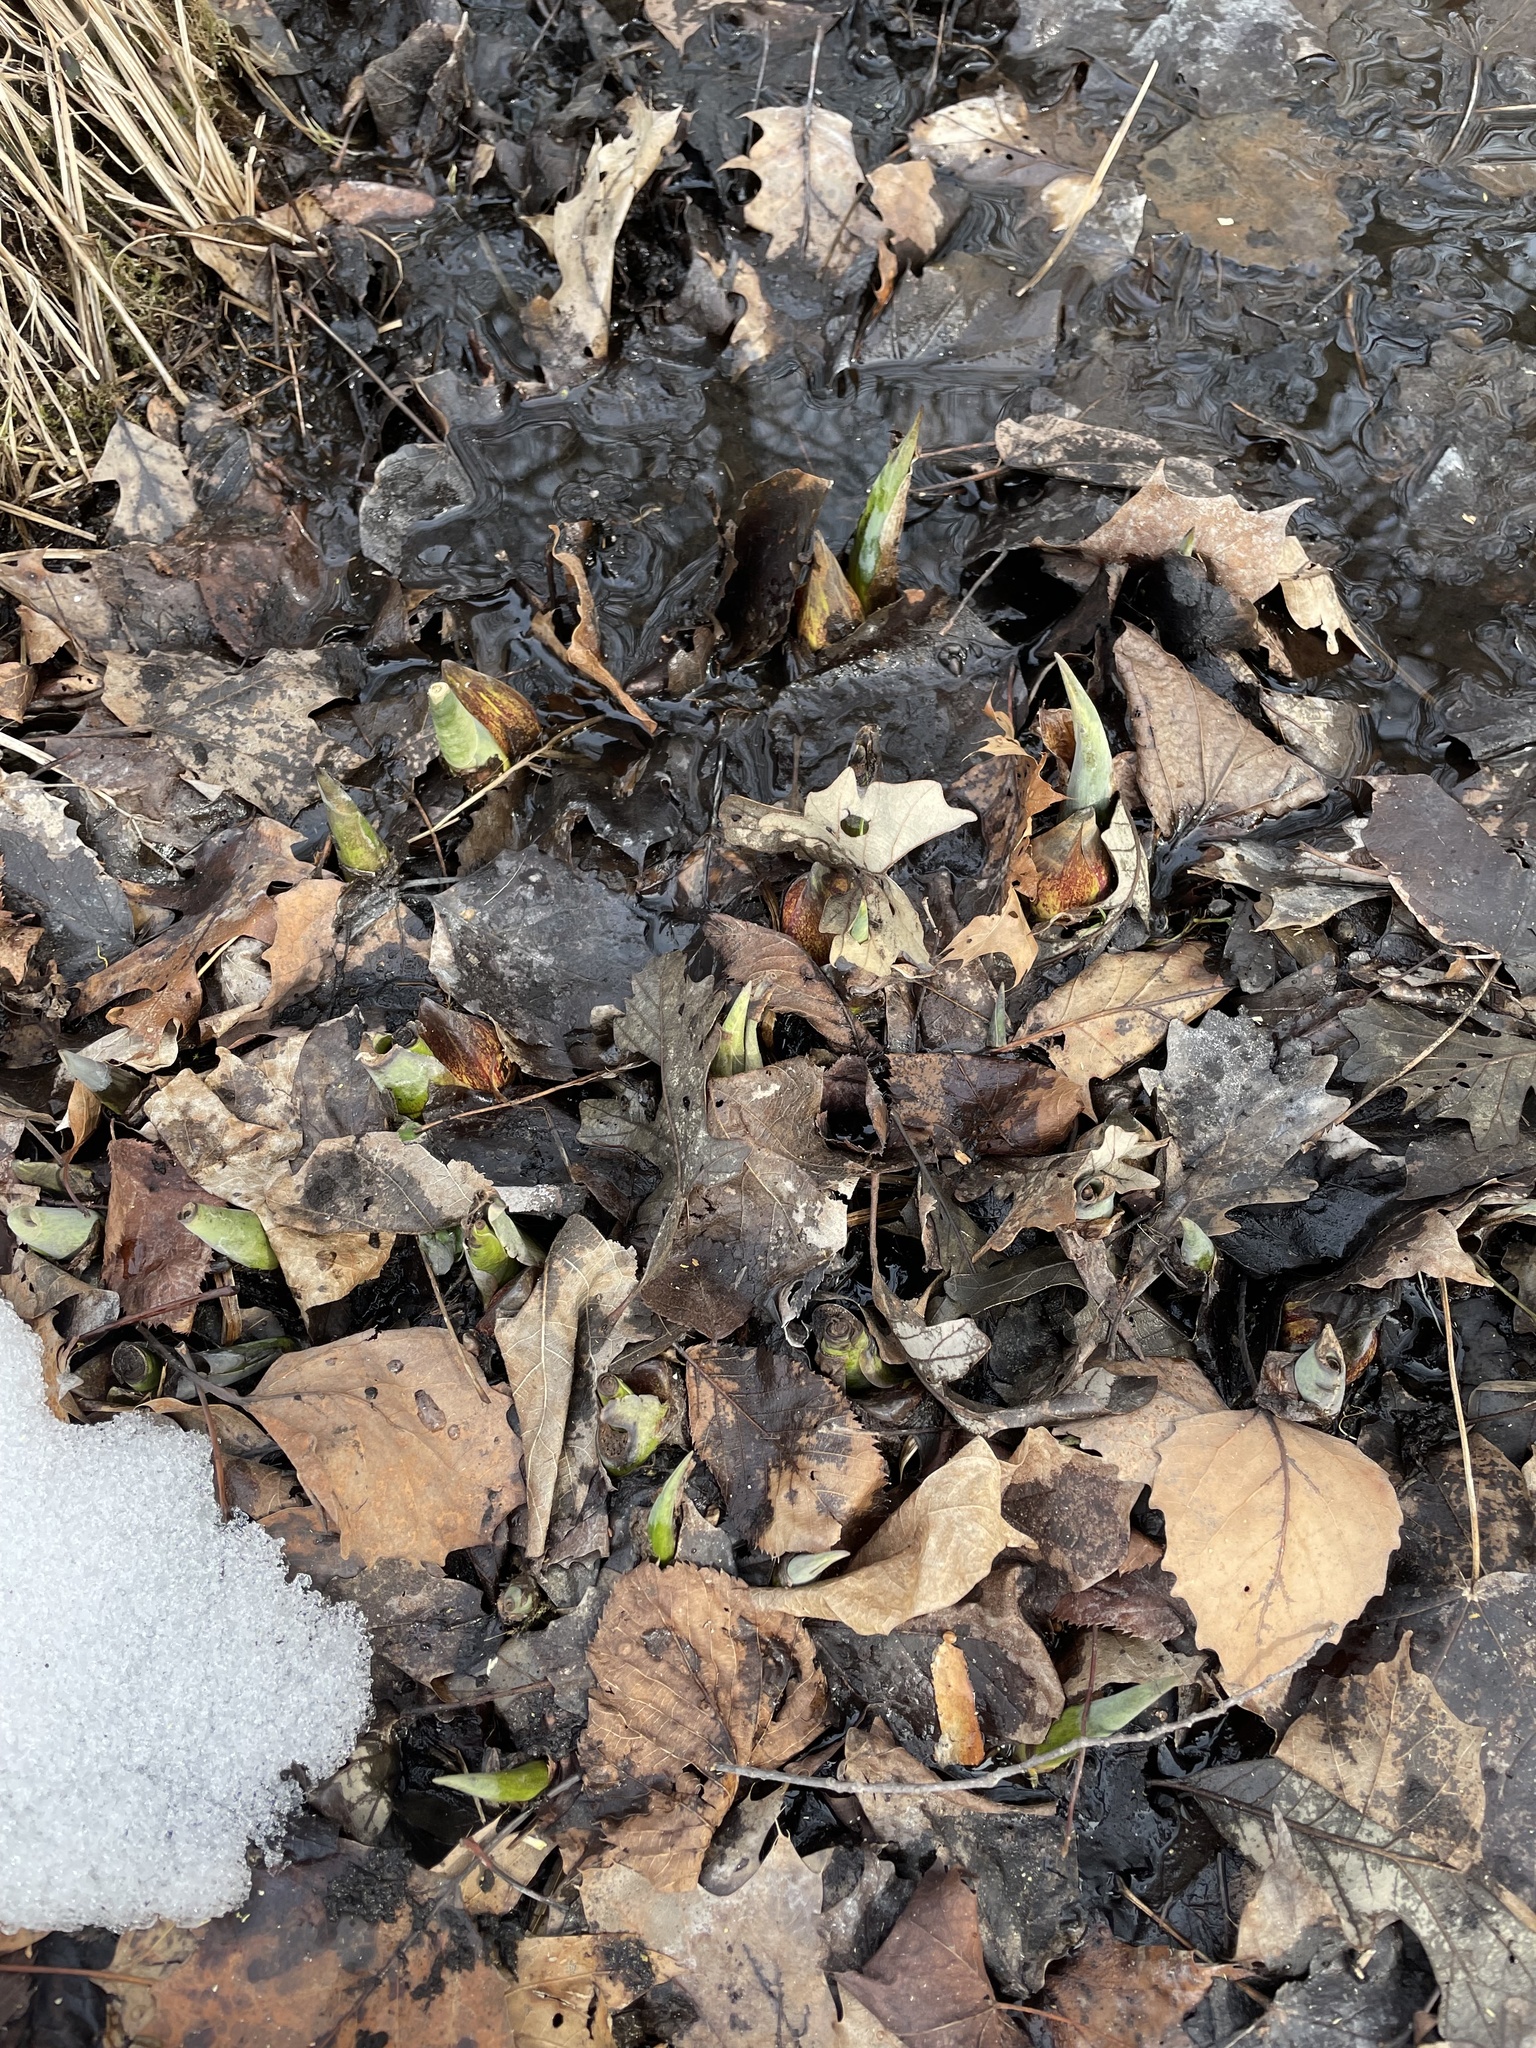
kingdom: Plantae
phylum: Tracheophyta
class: Liliopsida
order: Alismatales
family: Araceae
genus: Symplocarpus
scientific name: Symplocarpus foetidus
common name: Eastern skunk cabbage
